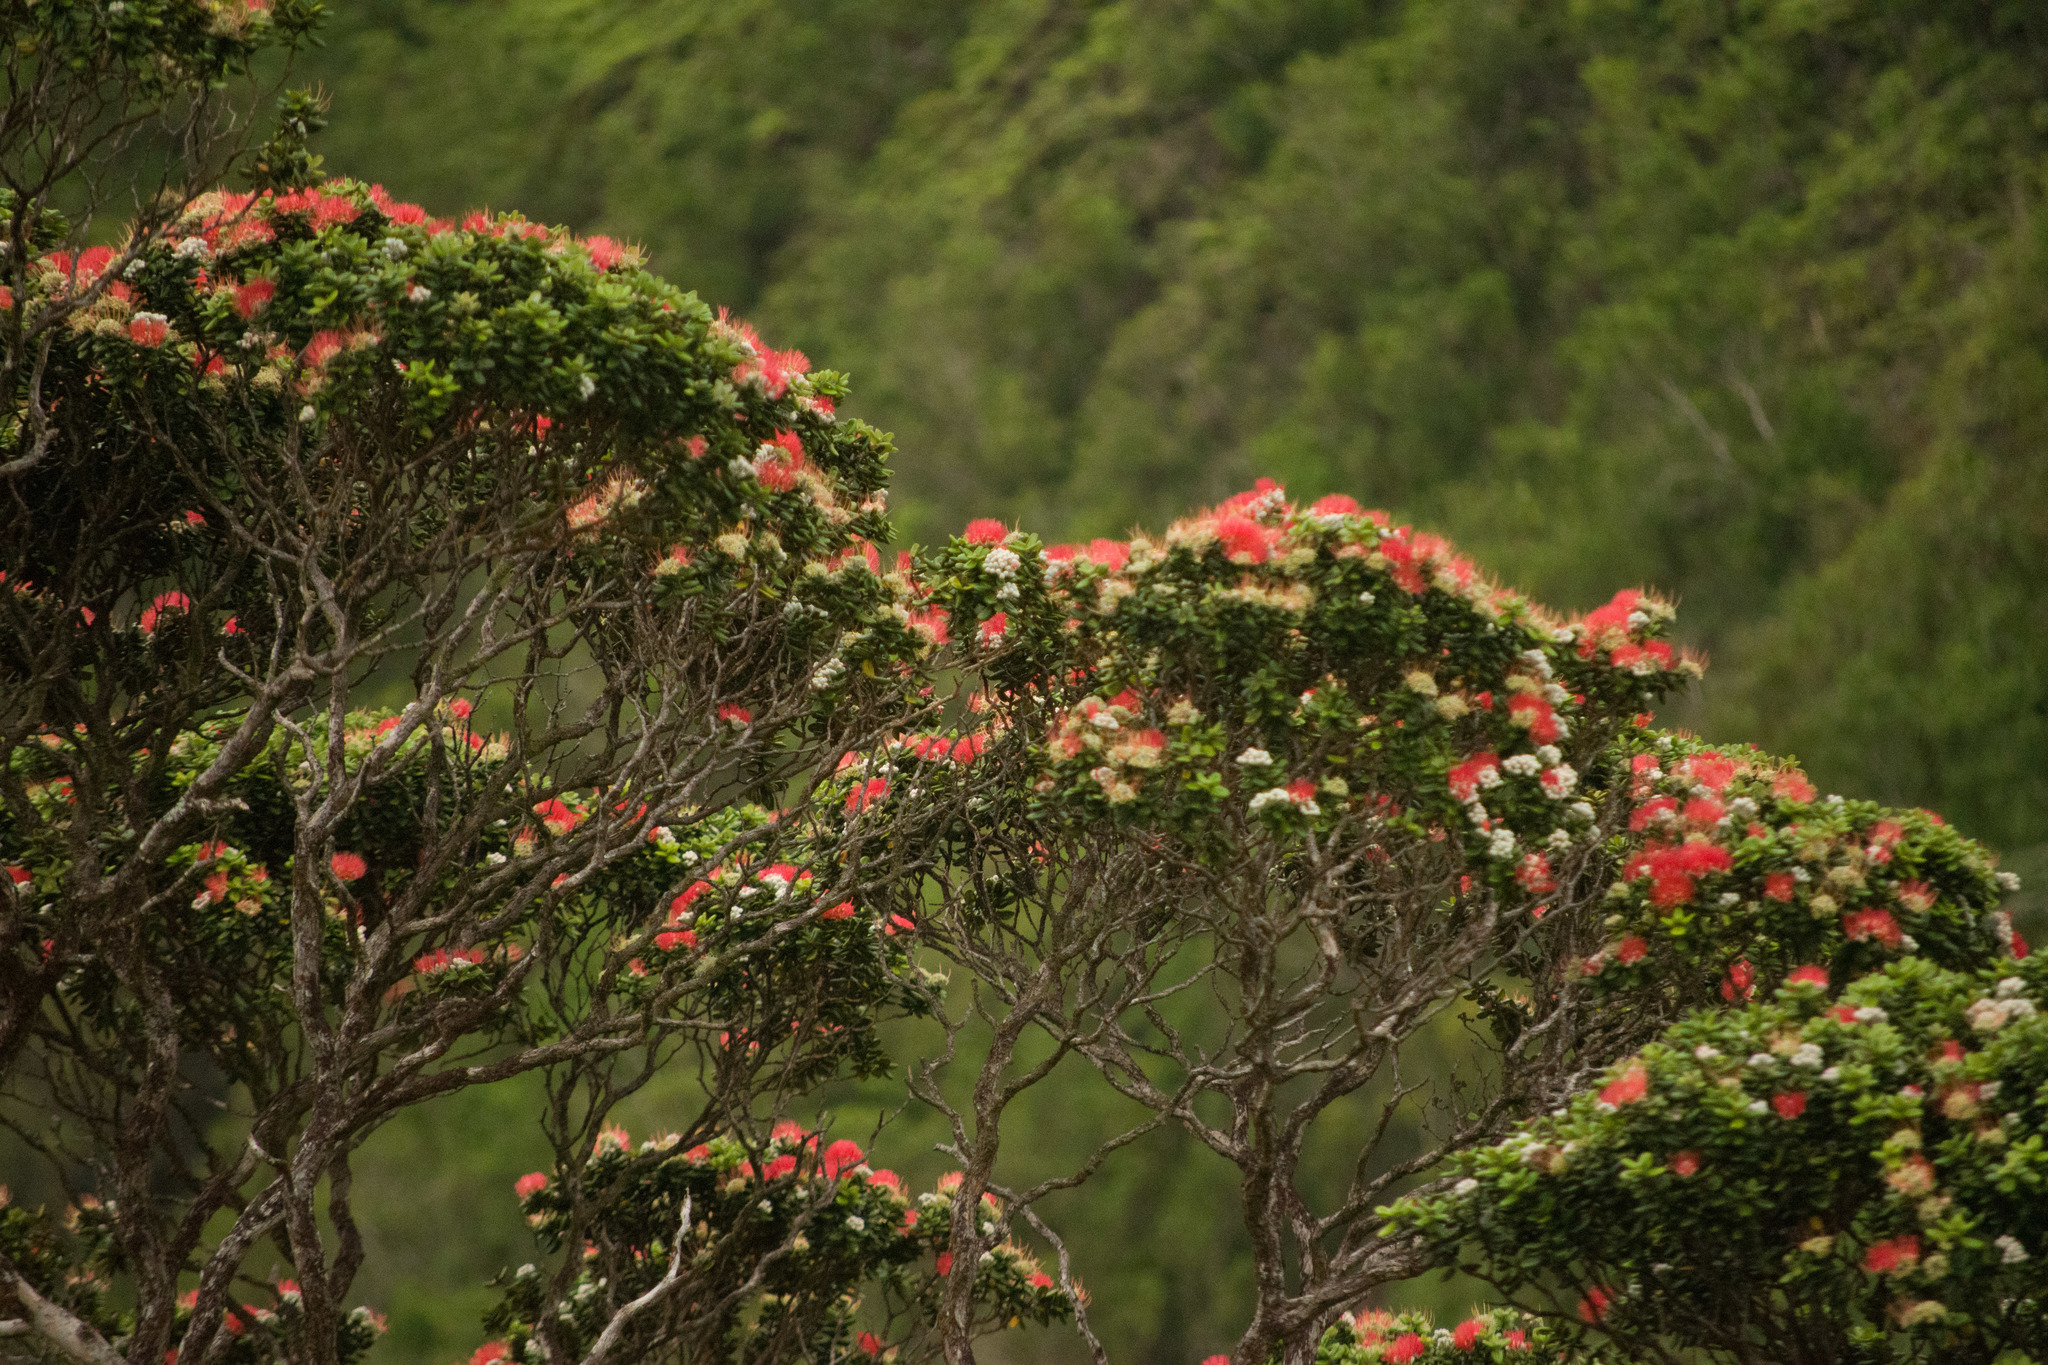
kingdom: Plantae
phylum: Tracheophyta
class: Magnoliopsida
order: Myrtales
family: Myrtaceae
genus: Metrosideros
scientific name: Metrosideros polymorpha
